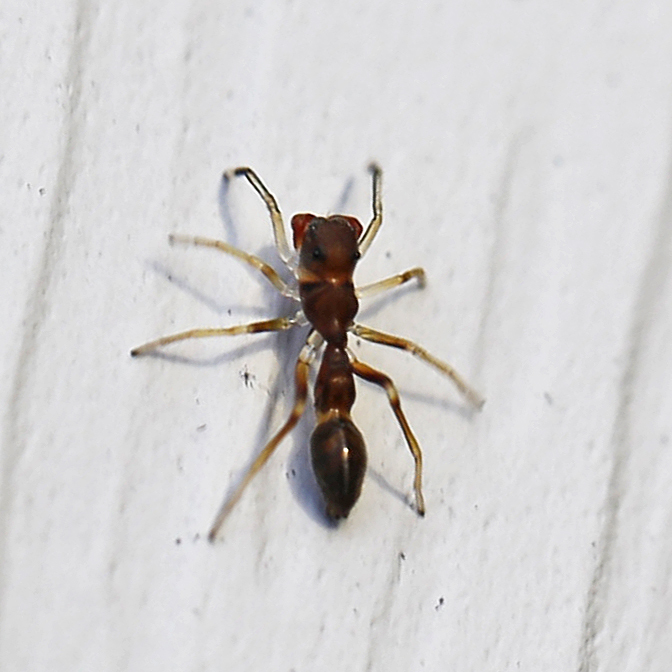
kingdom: Animalia
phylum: Arthropoda
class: Arachnida
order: Araneae
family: Salticidae
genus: Synemosyna
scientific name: Synemosyna formica
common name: Slender ant-mimic jumping spider
